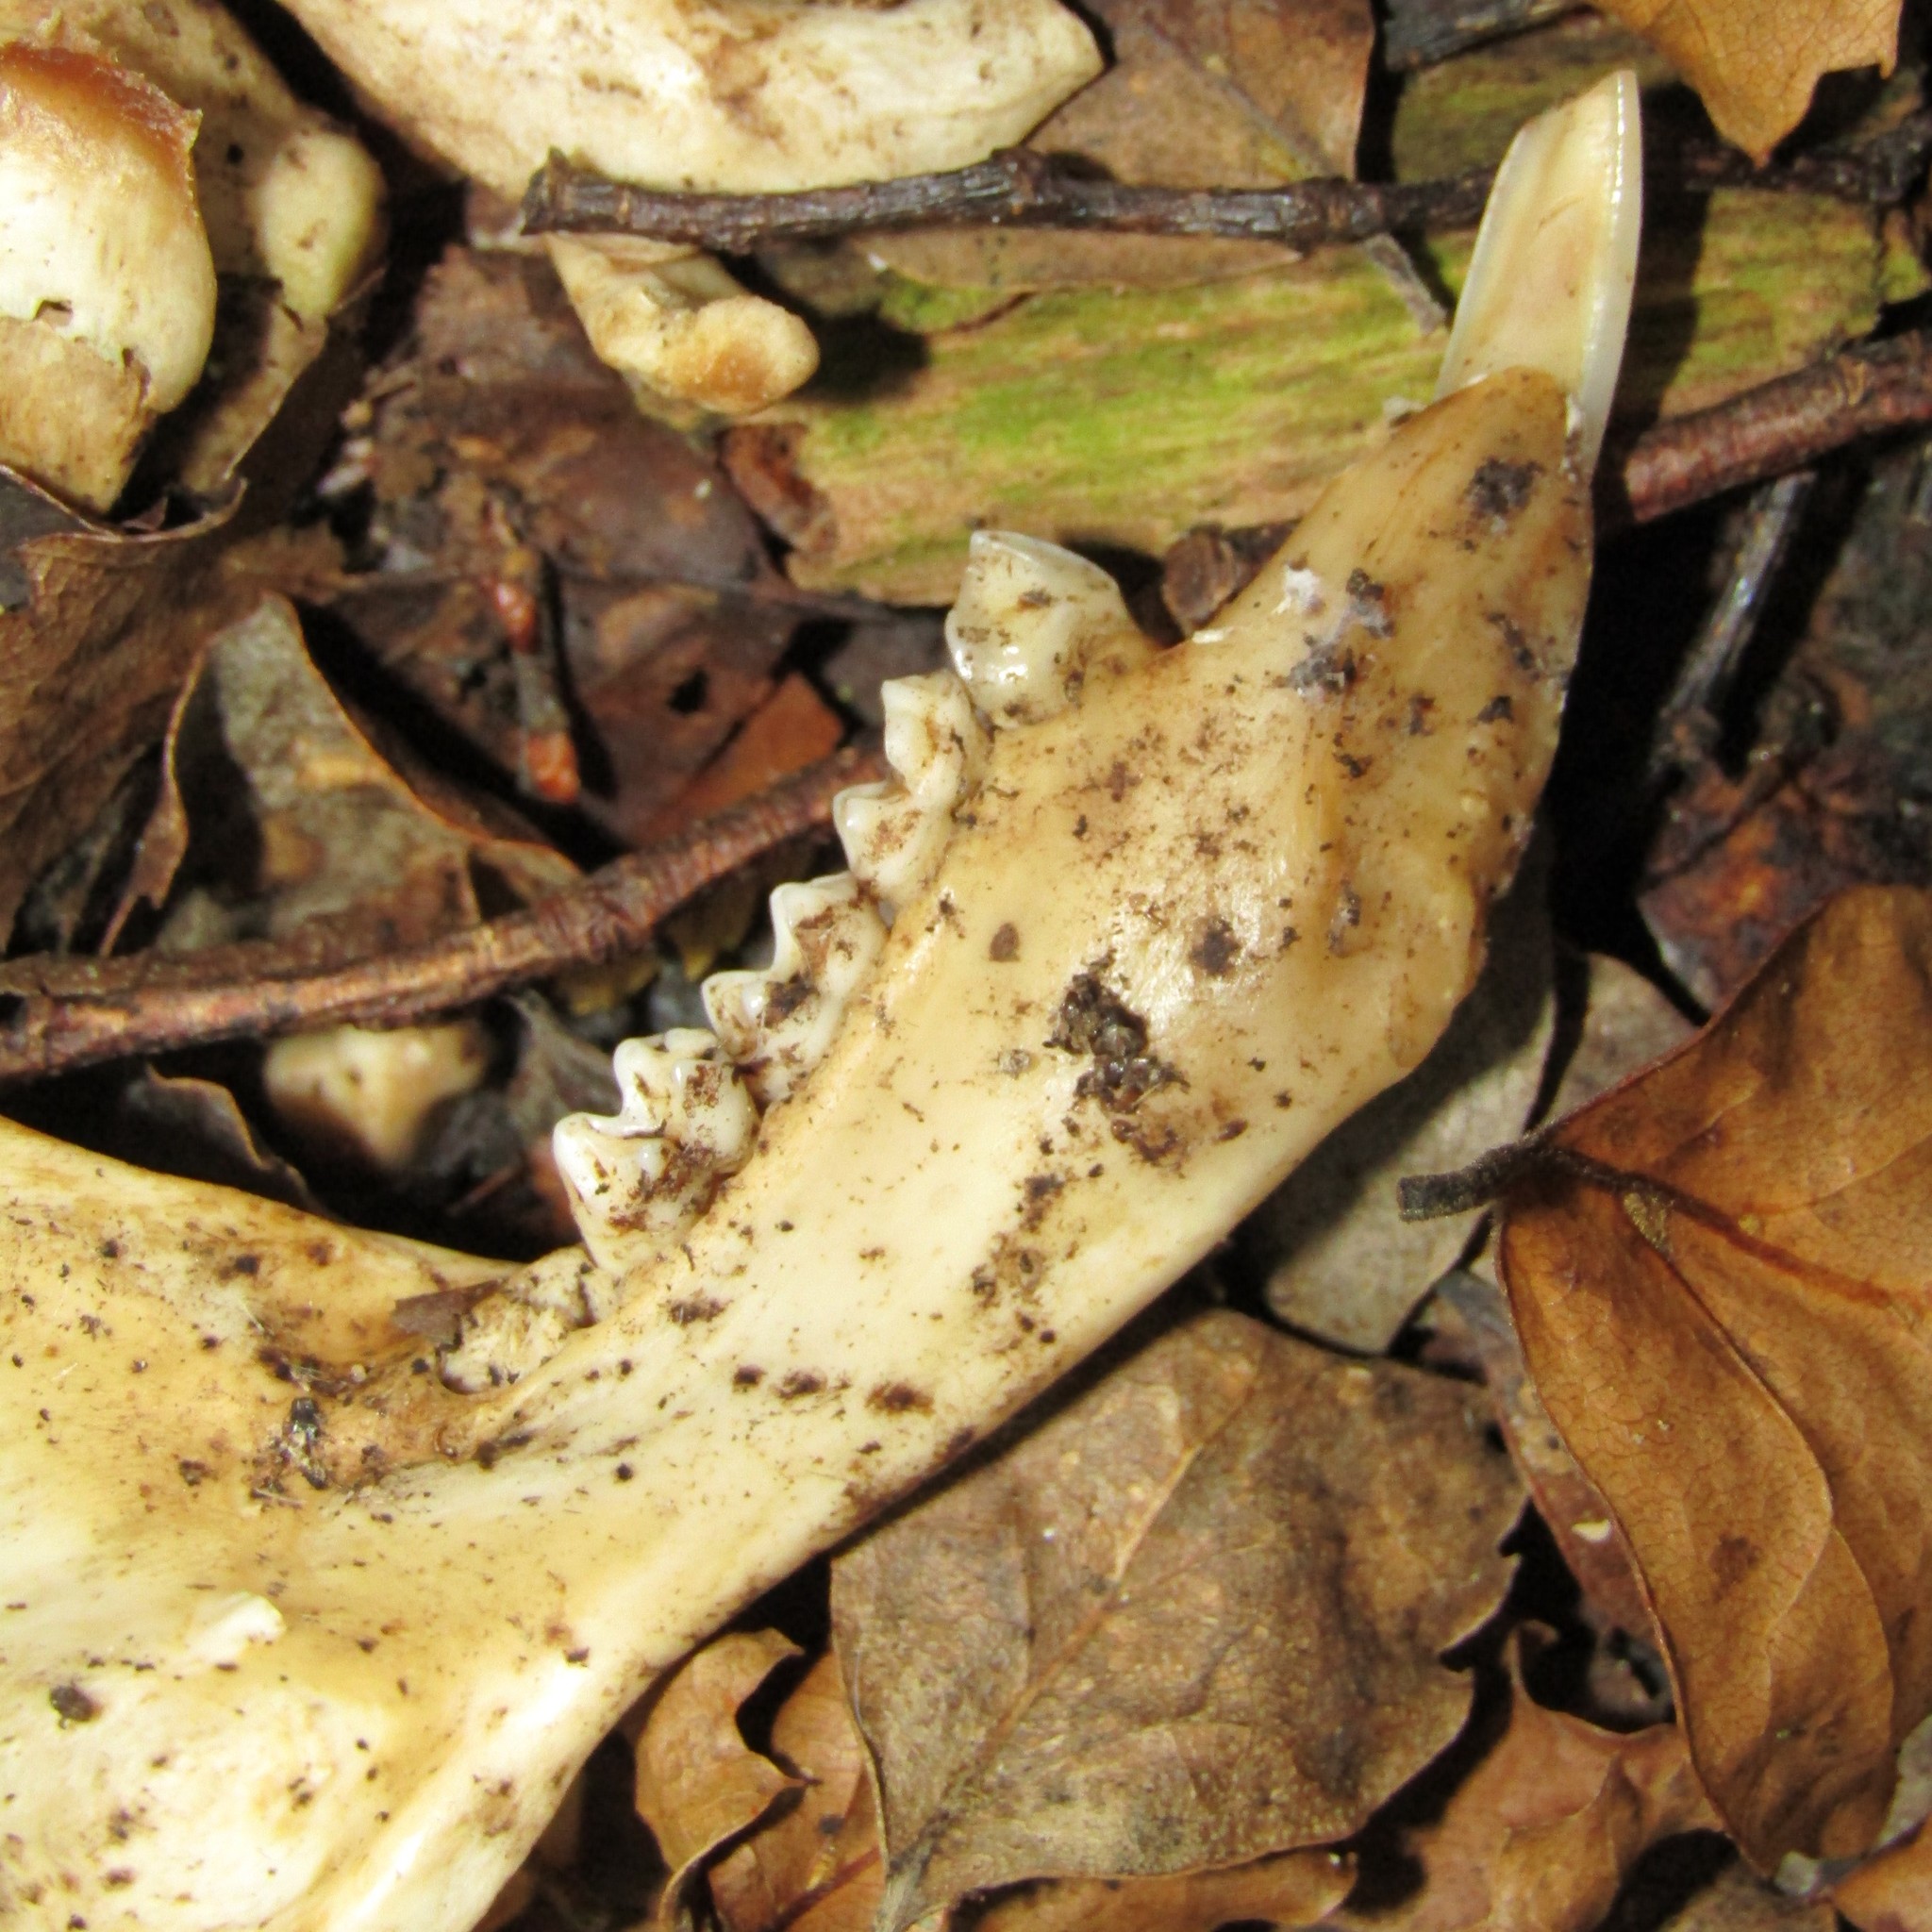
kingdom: Animalia
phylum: Chordata
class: Mammalia
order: Diprotodontia
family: Phalangeridae
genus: Trichosurus
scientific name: Trichosurus vulpecula
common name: Common brushtail
